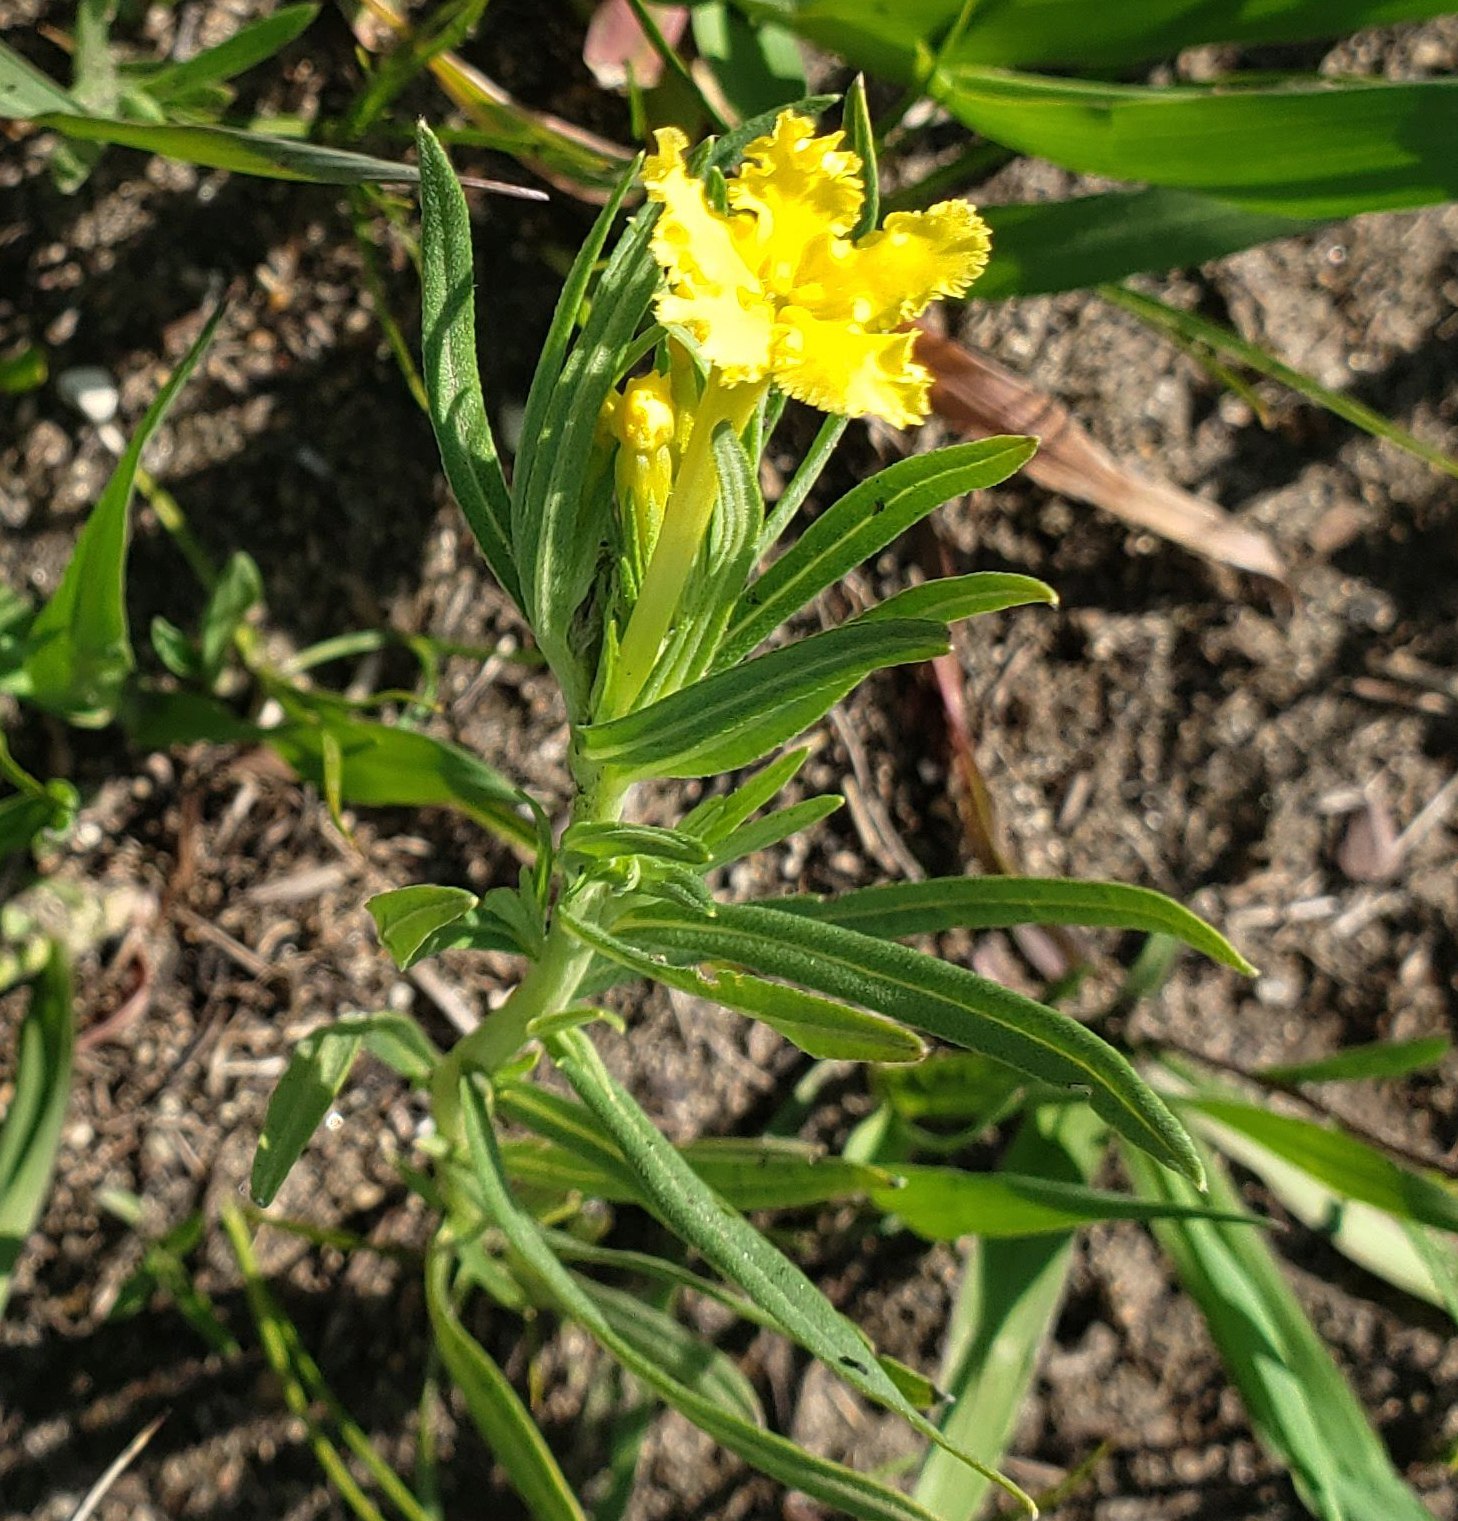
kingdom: Plantae
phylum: Tracheophyta
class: Magnoliopsida
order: Boraginales
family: Boraginaceae
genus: Lithospermum
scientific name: Lithospermum incisum
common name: Fringed gromwell
